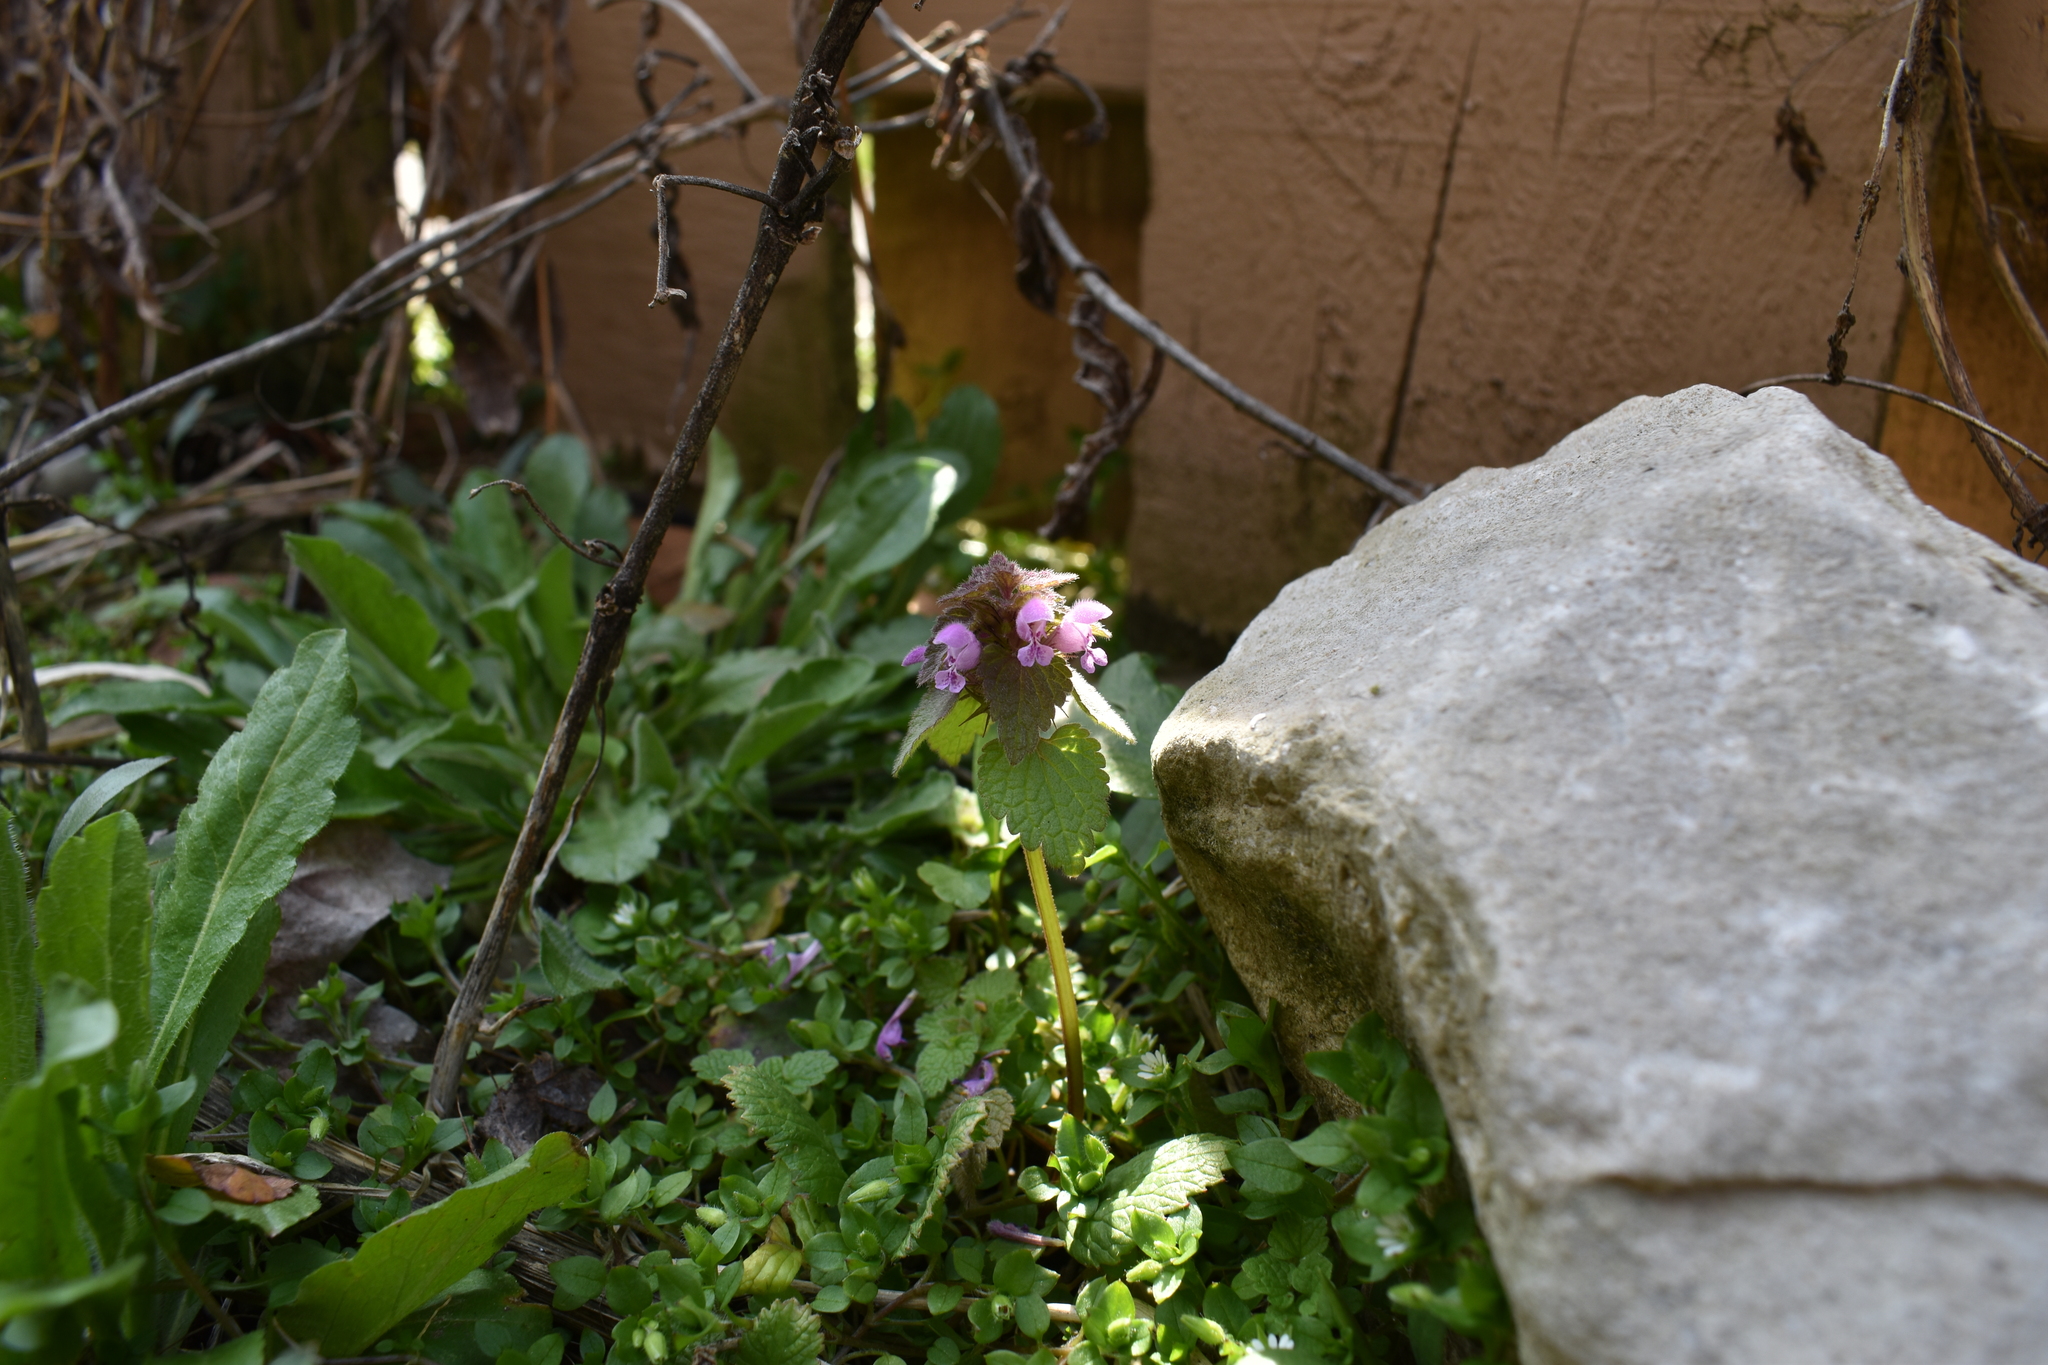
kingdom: Plantae
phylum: Tracheophyta
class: Magnoliopsida
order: Lamiales
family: Lamiaceae
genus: Lamium
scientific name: Lamium purpureum
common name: Red dead-nettle
